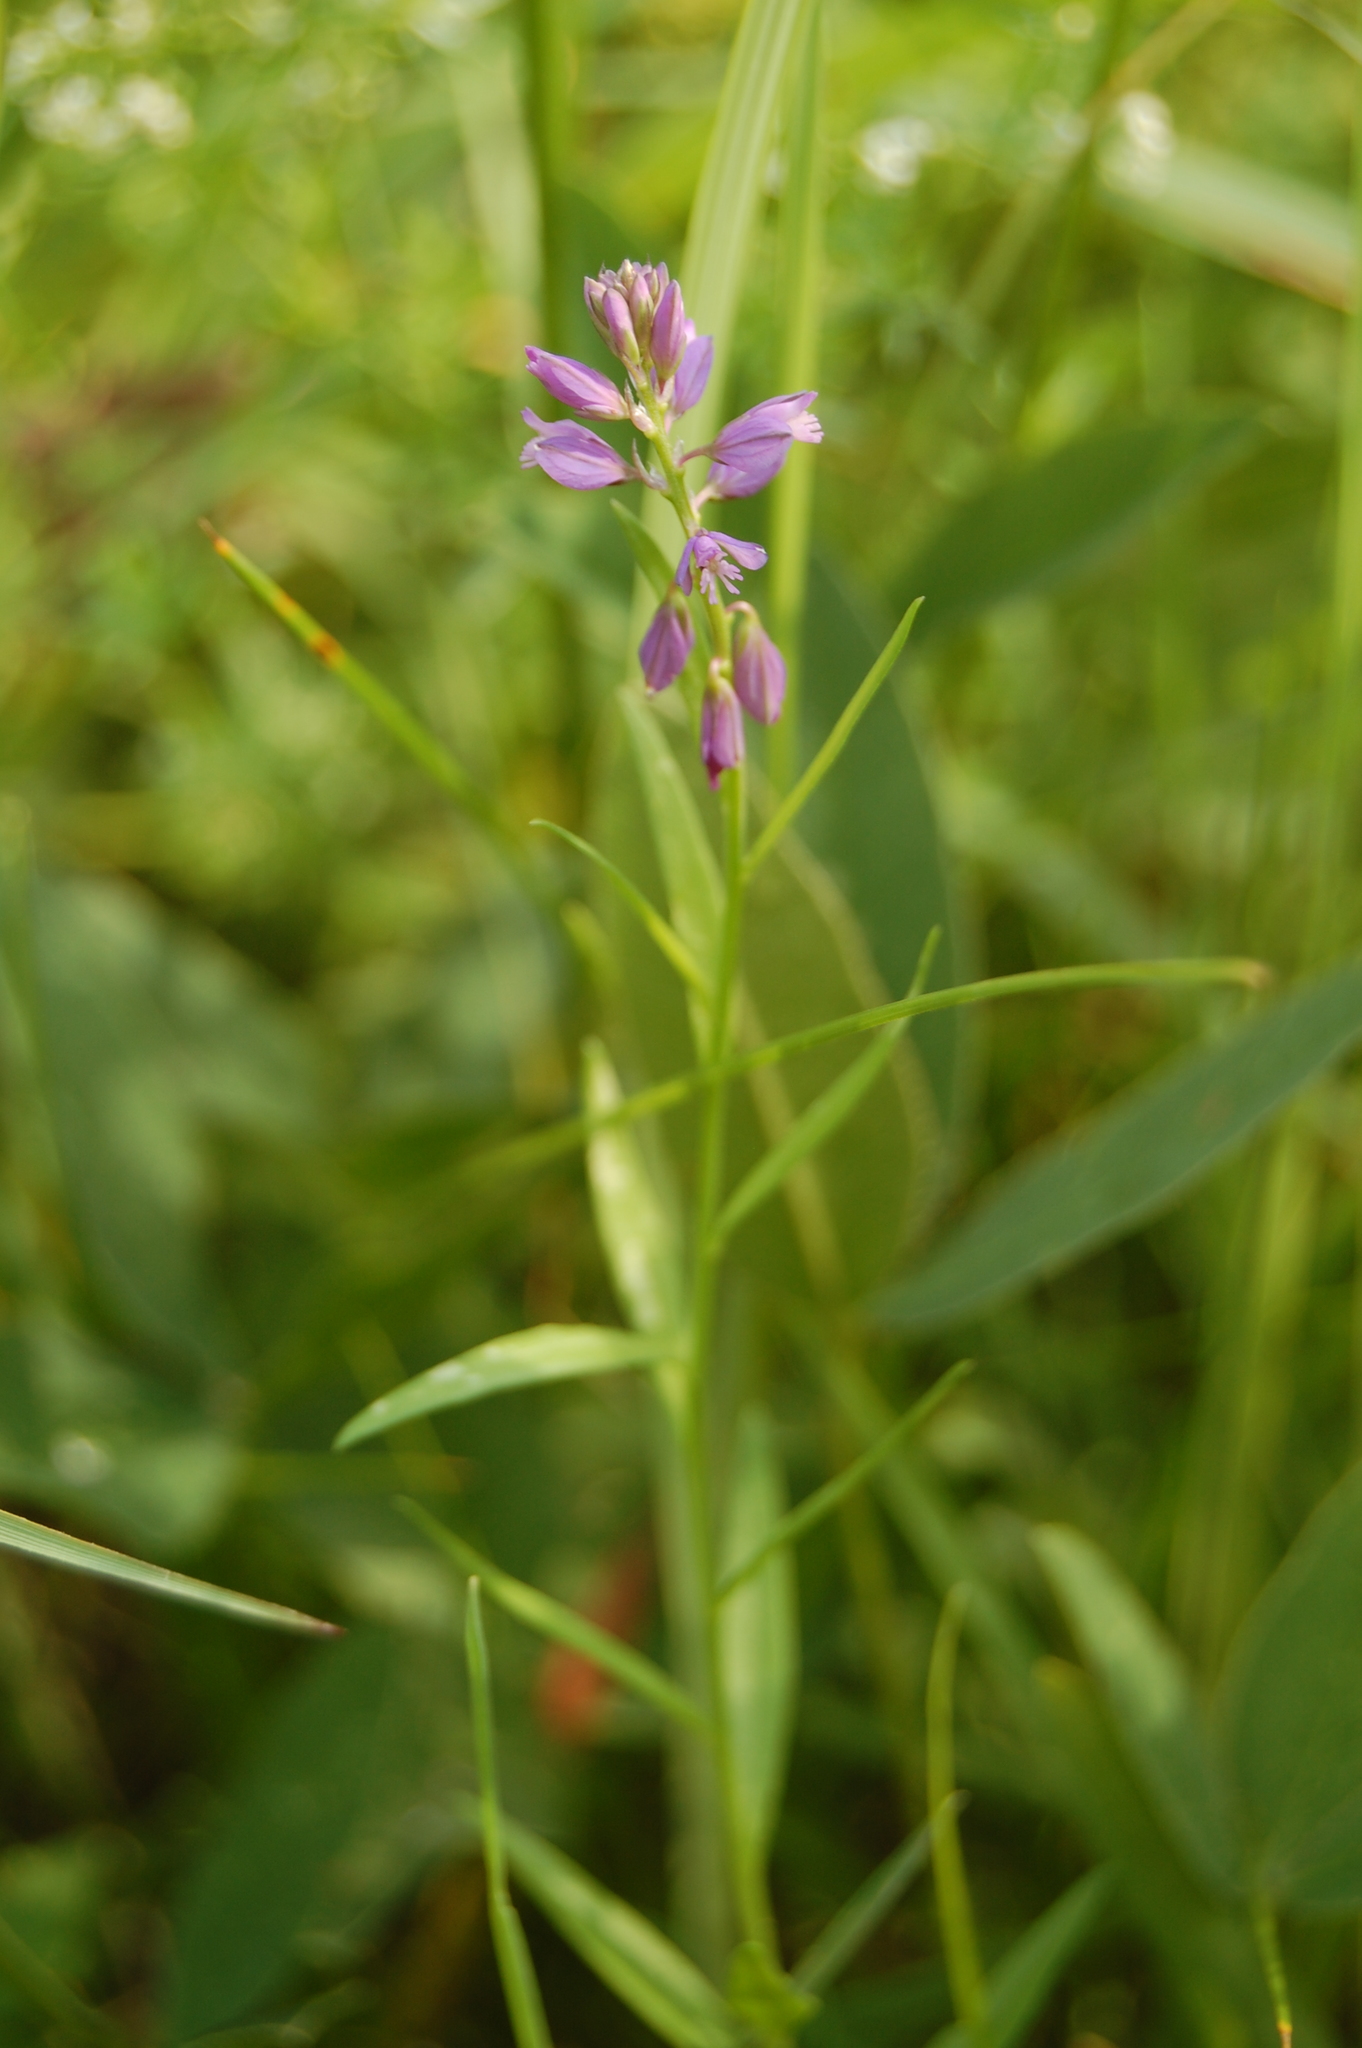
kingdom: Plantae
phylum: Tracheophyta
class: Magnoliopsida
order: Fabales
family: Polygalaceae
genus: Polygala
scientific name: Polygala comosa
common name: Tufted milkwort
